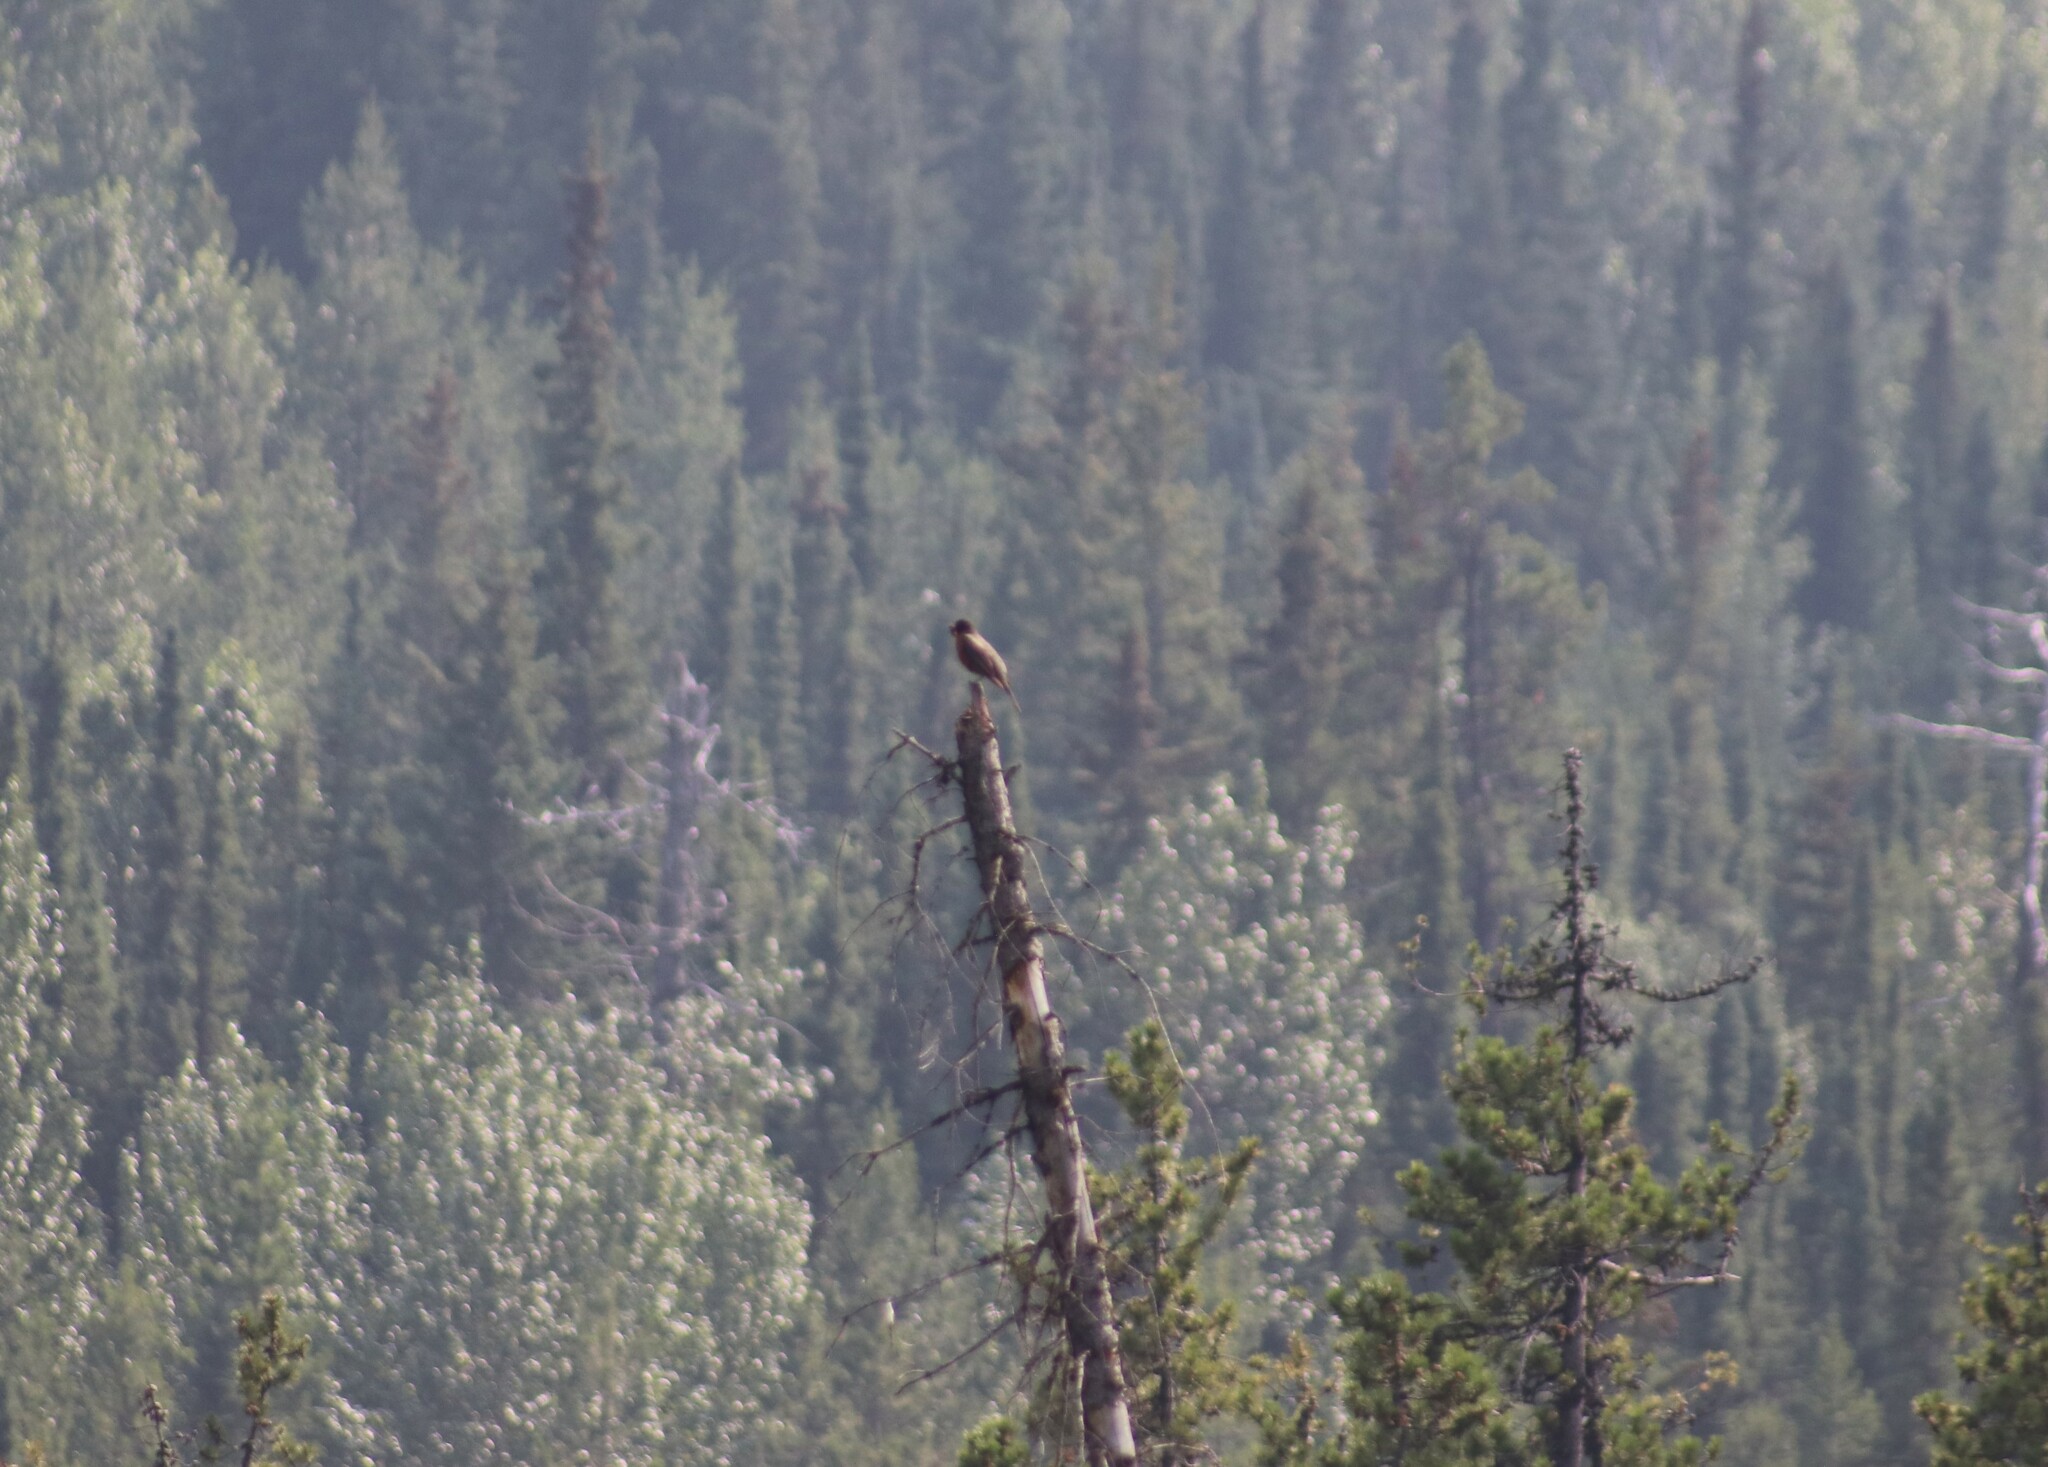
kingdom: Animalia
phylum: Chordata
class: Aves
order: Passeriformes
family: Turdidae
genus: Turdus
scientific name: Turdus migratorius
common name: American robin
